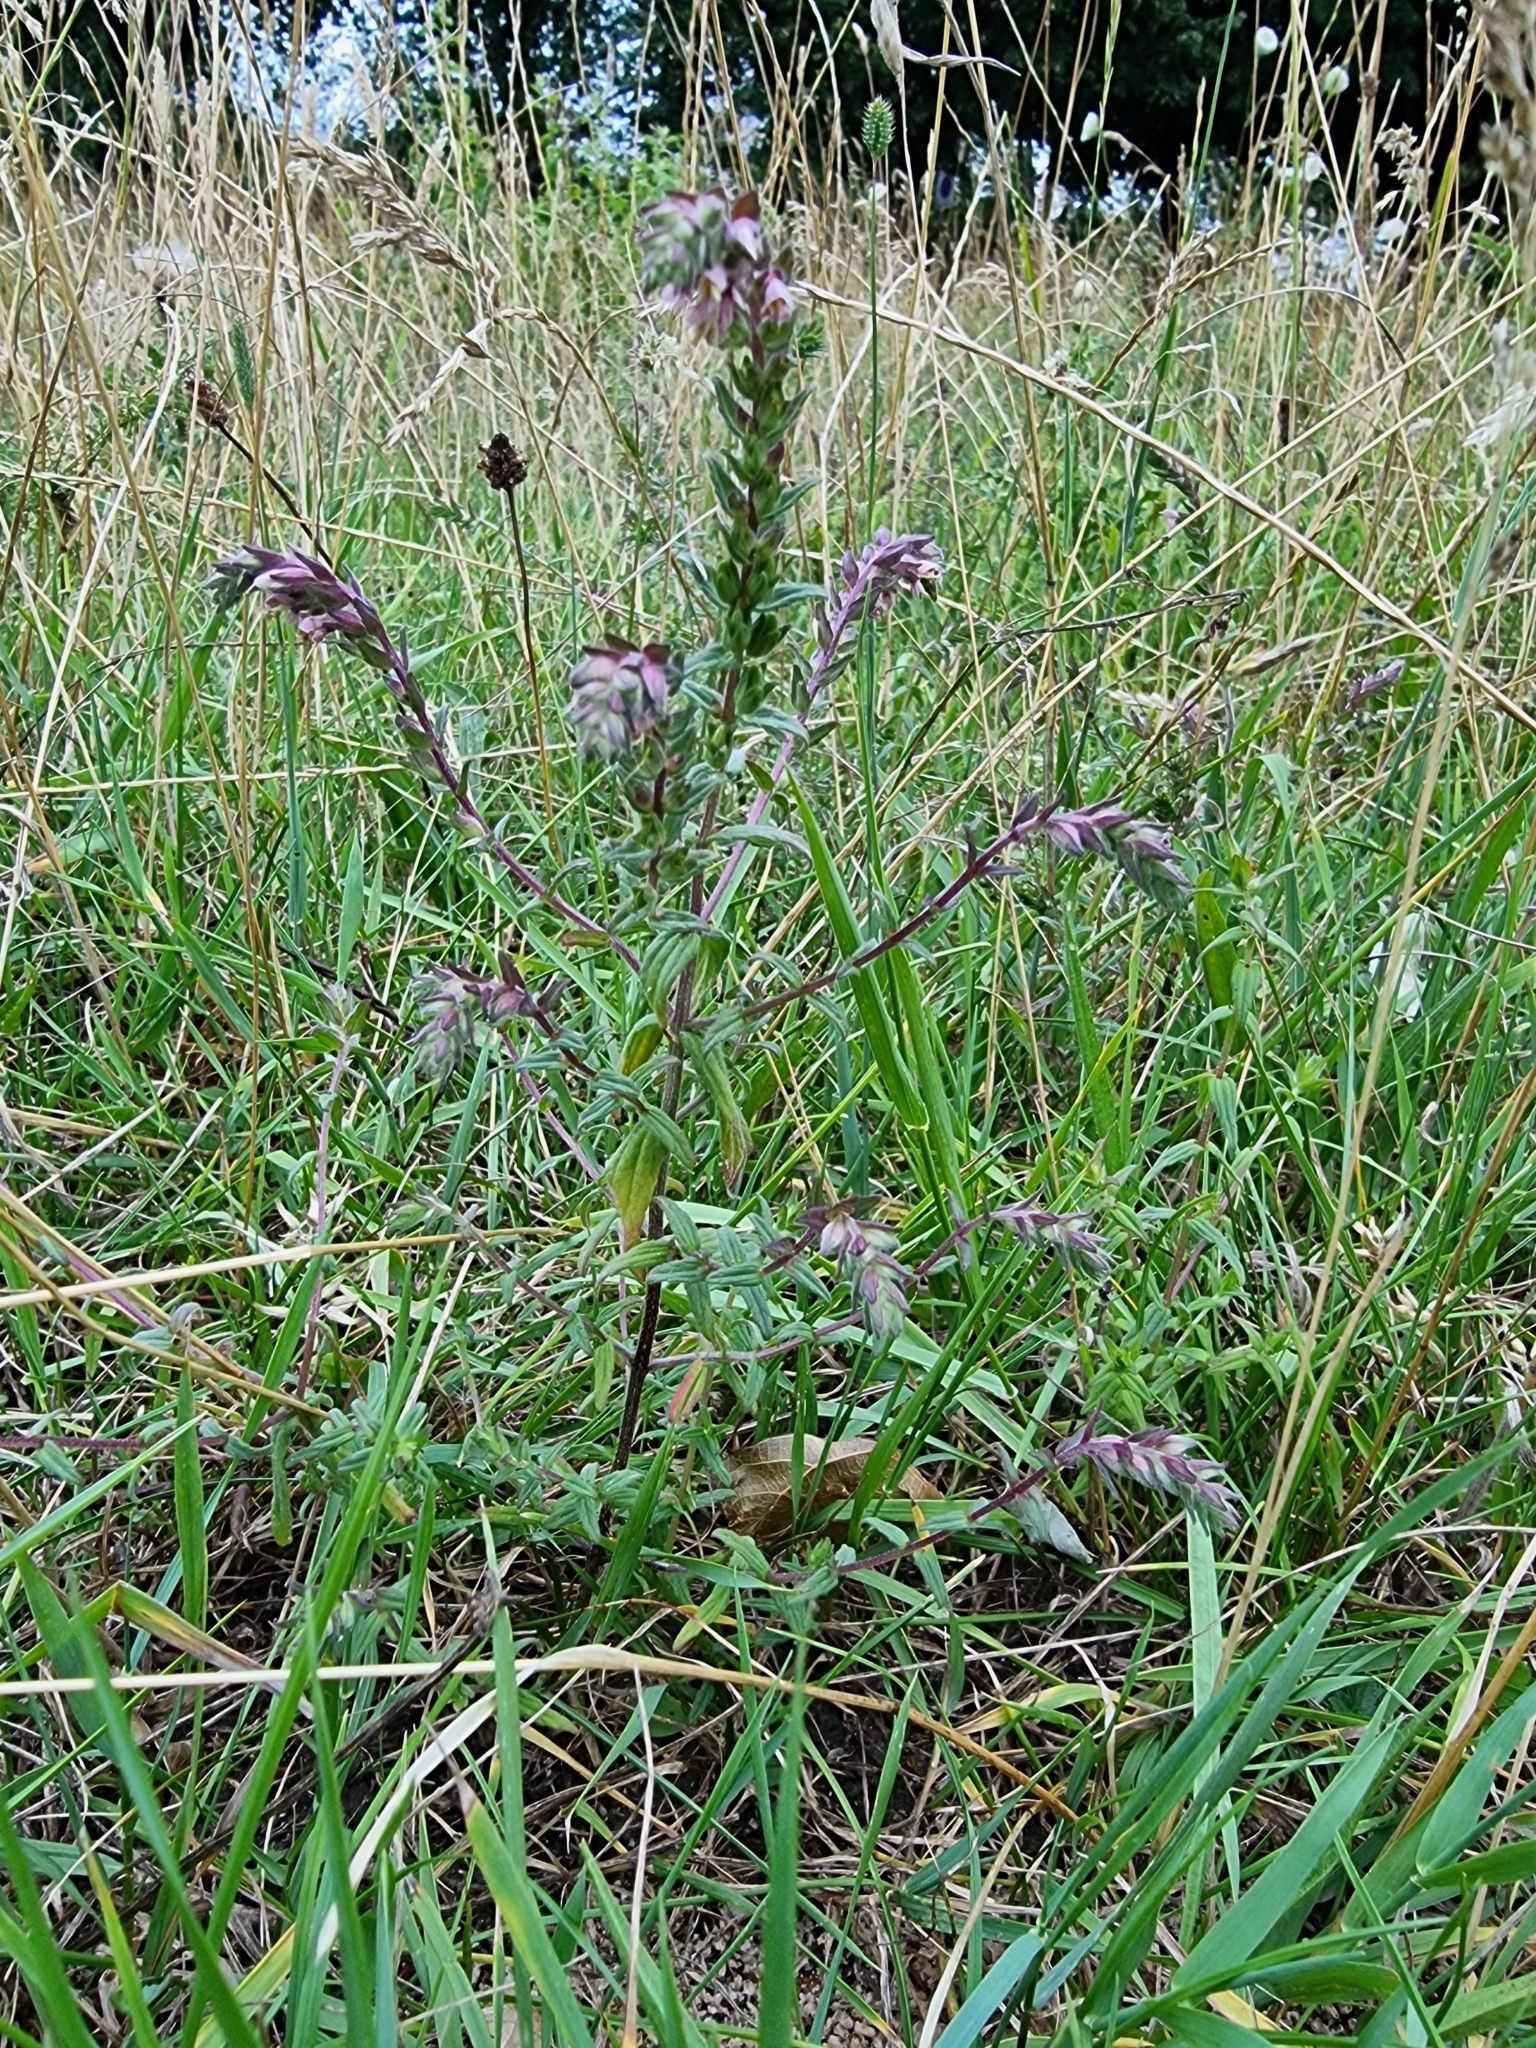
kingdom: Plantae
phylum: Tracheophyta
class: Magnoliopsida
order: Lamiales
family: Orobanchaceae
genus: Odontites
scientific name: Odontites vulgaris
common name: Broomrape
